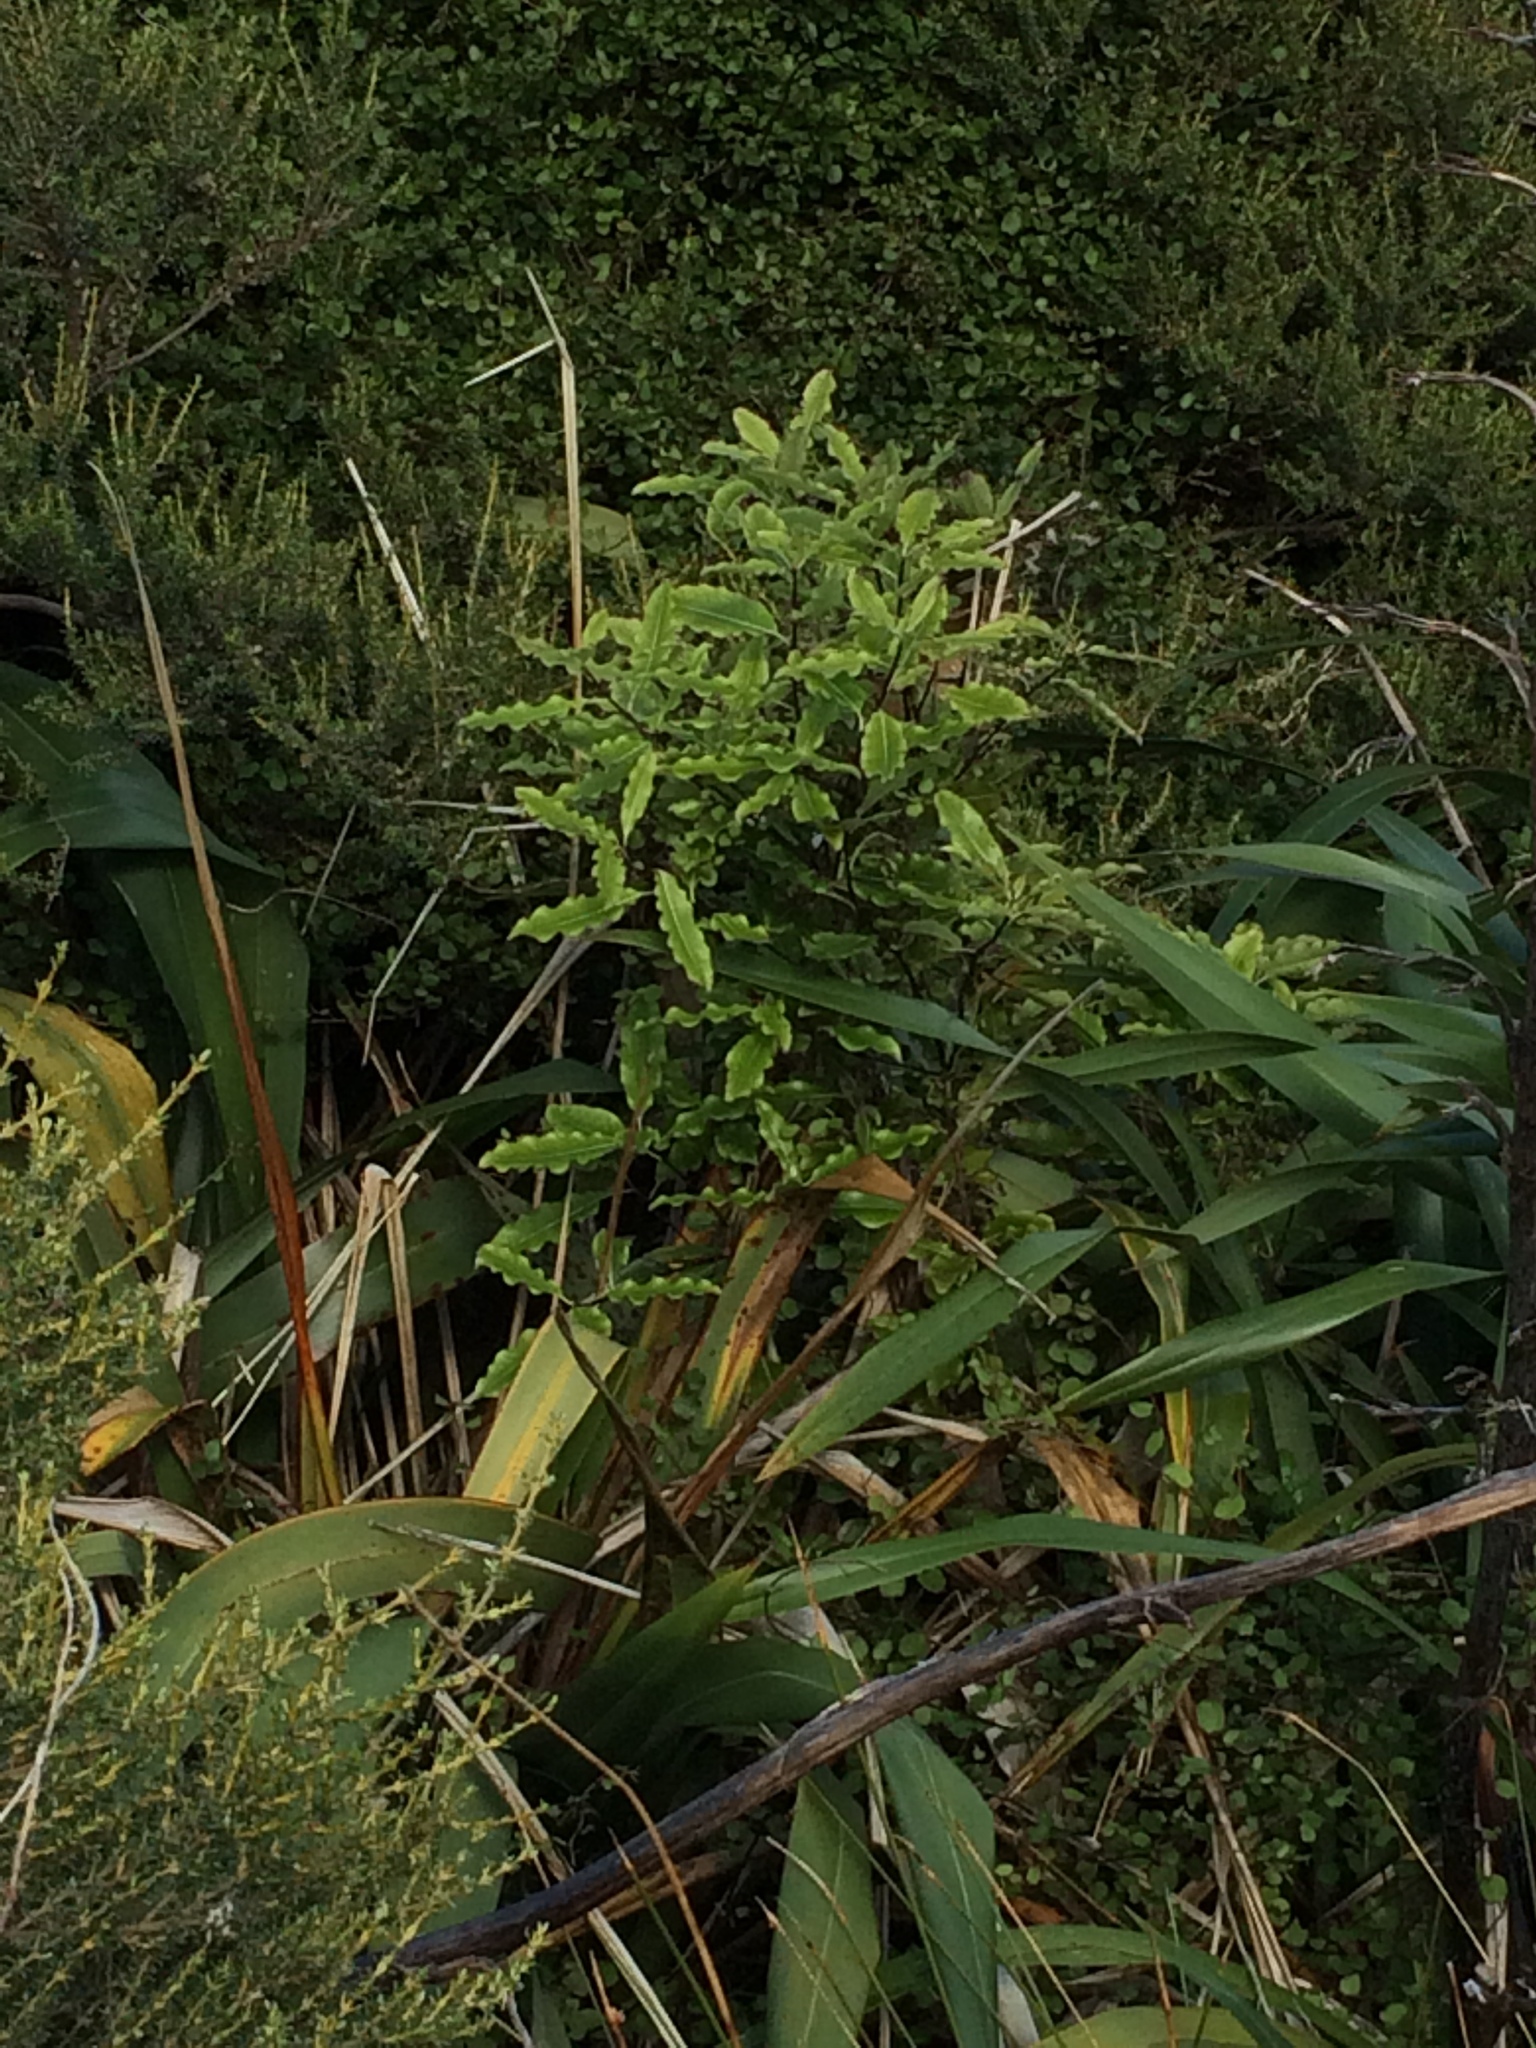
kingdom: Plantae
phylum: Tracheophyta
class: Magnoliopsida
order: Apiales
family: Pittosporaceae
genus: Pittosporum
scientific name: Pittosporum eugenioides
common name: Lemonwood
